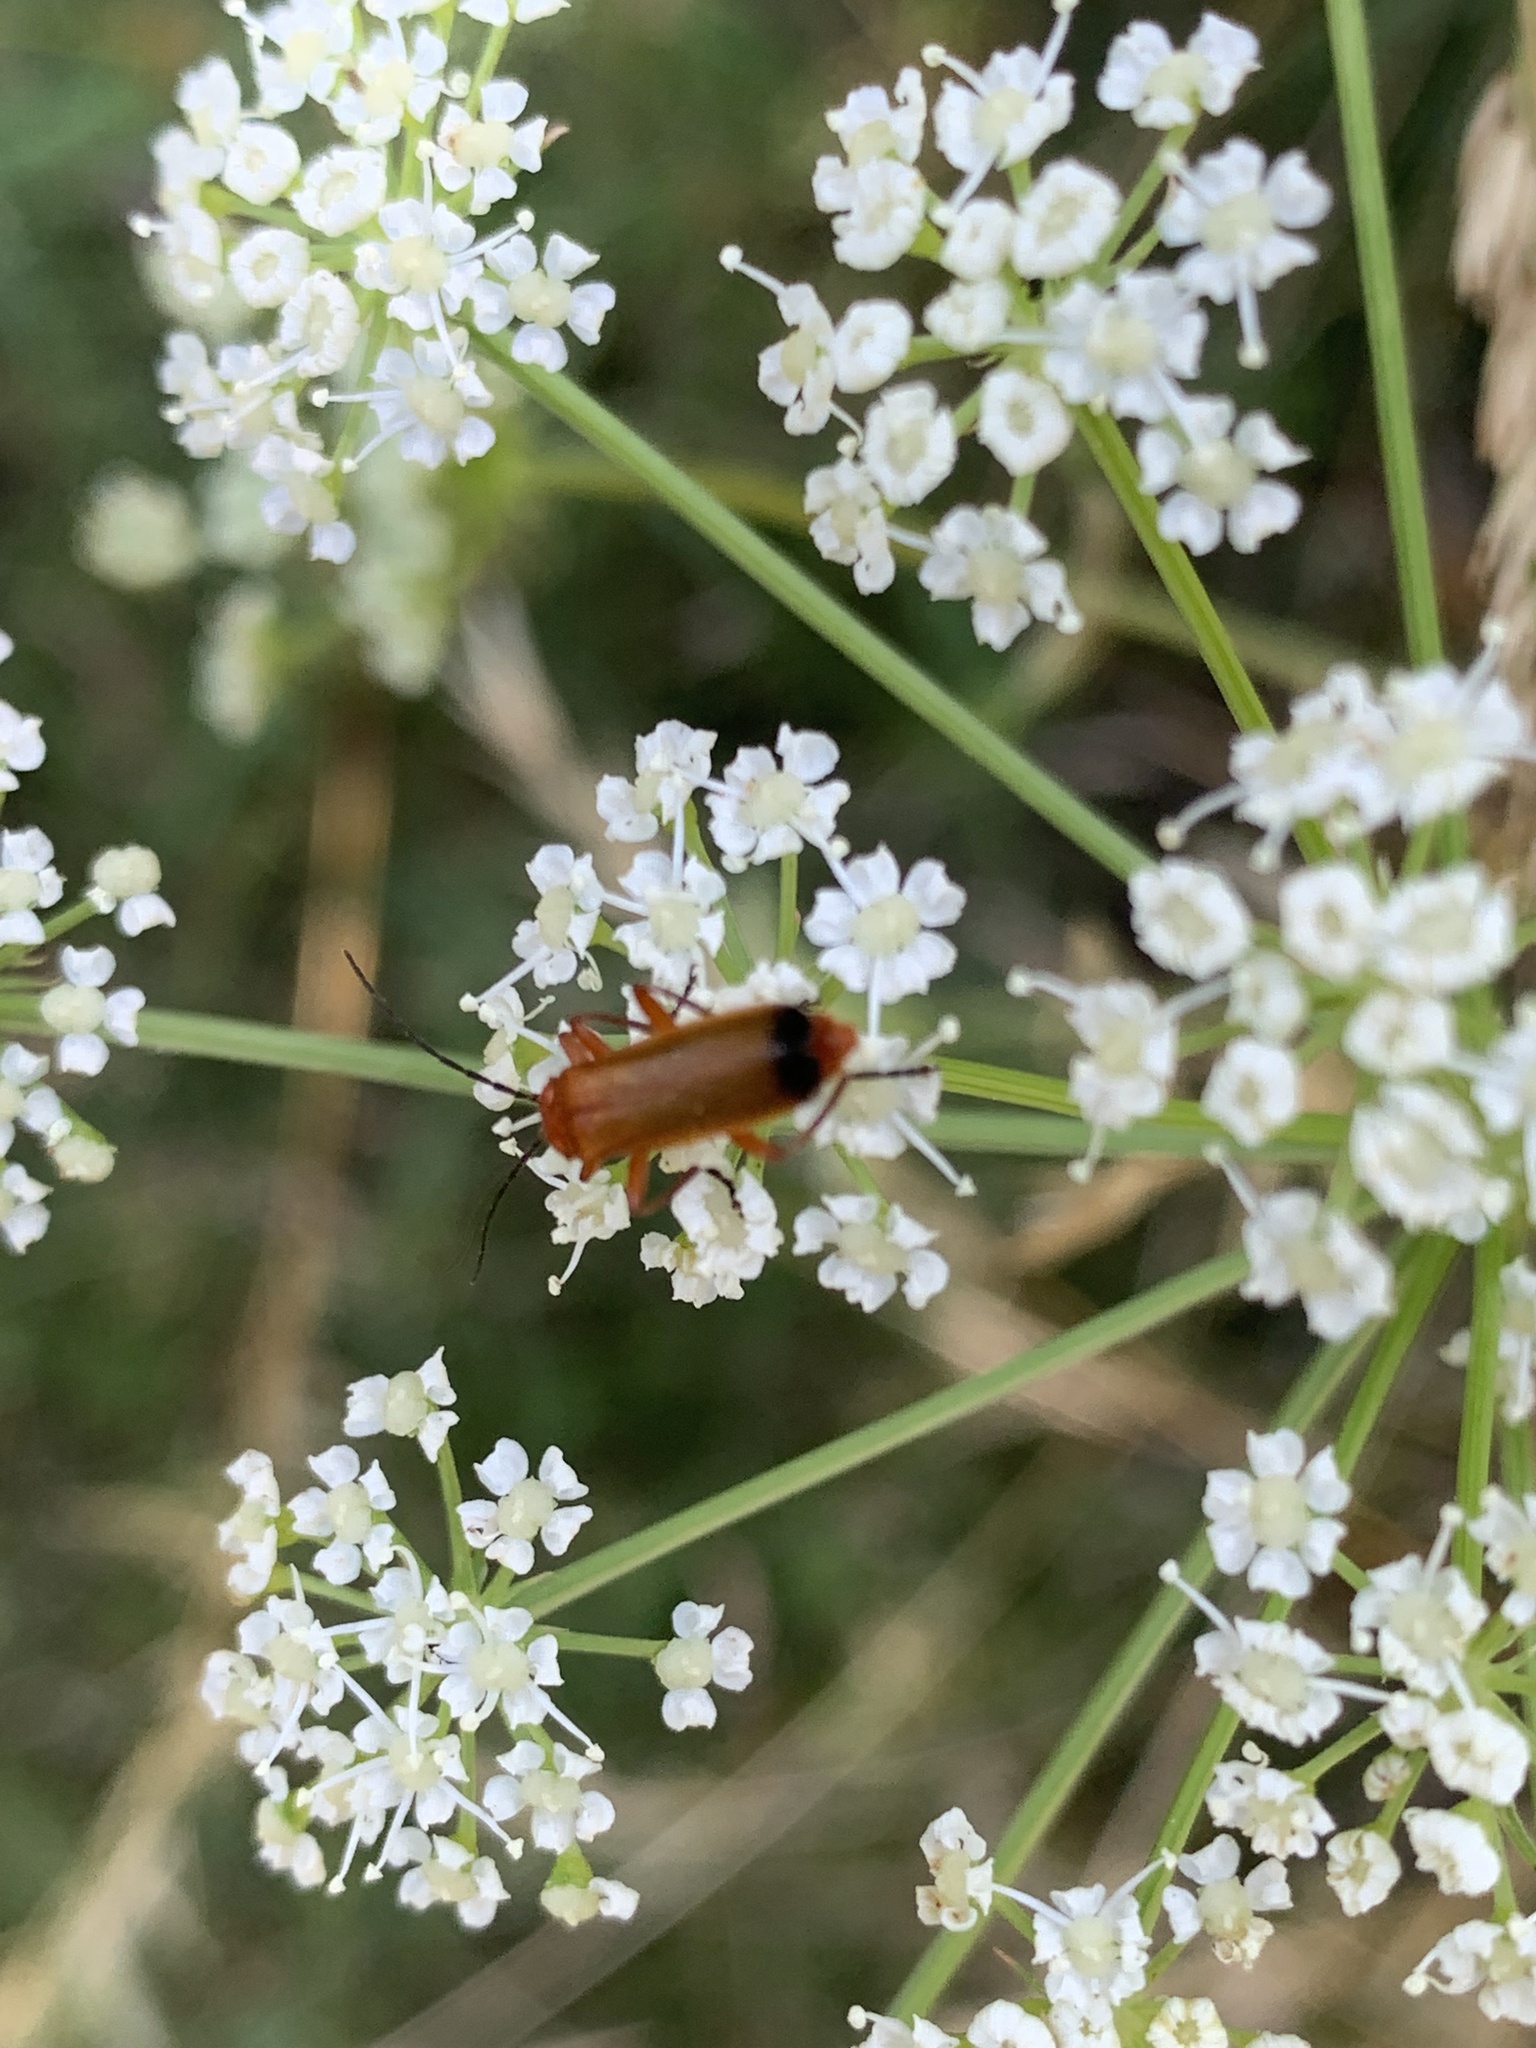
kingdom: Animalia
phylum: Arthropoda
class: Insecta
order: Coleoptera
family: Cantharidae
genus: Rhagonycha
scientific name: Rhagonycha fulva
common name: Common red soldier beetle
